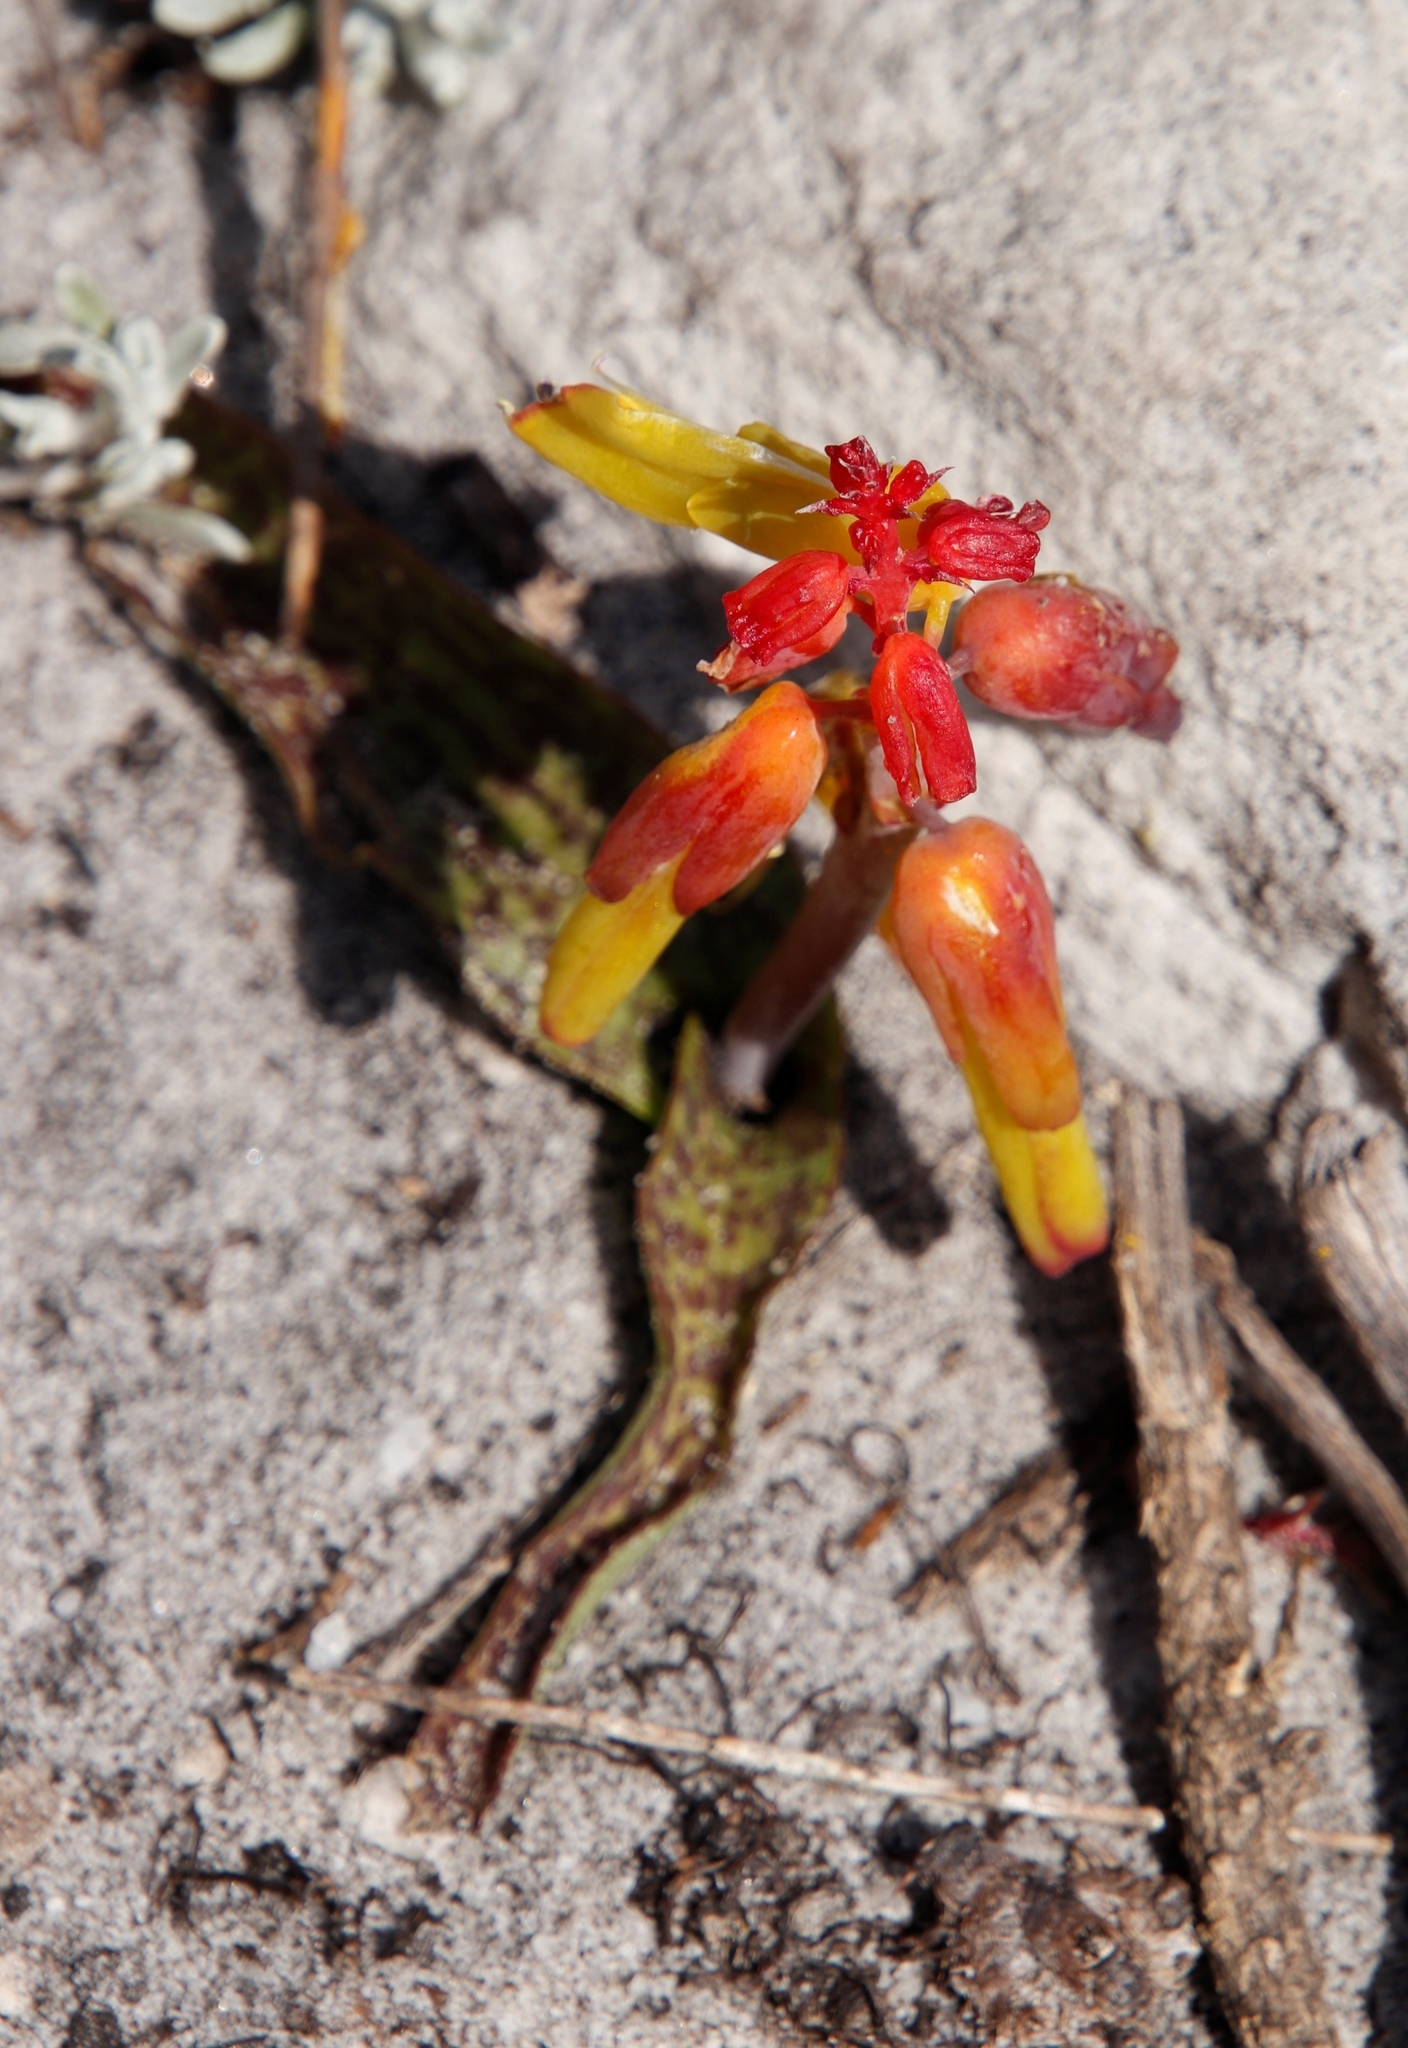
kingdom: Plantae
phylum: Tracheophyta
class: Liliopsida
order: Asparagales
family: Asparagaceae
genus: Lachenalia
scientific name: Lachenalia luteola
